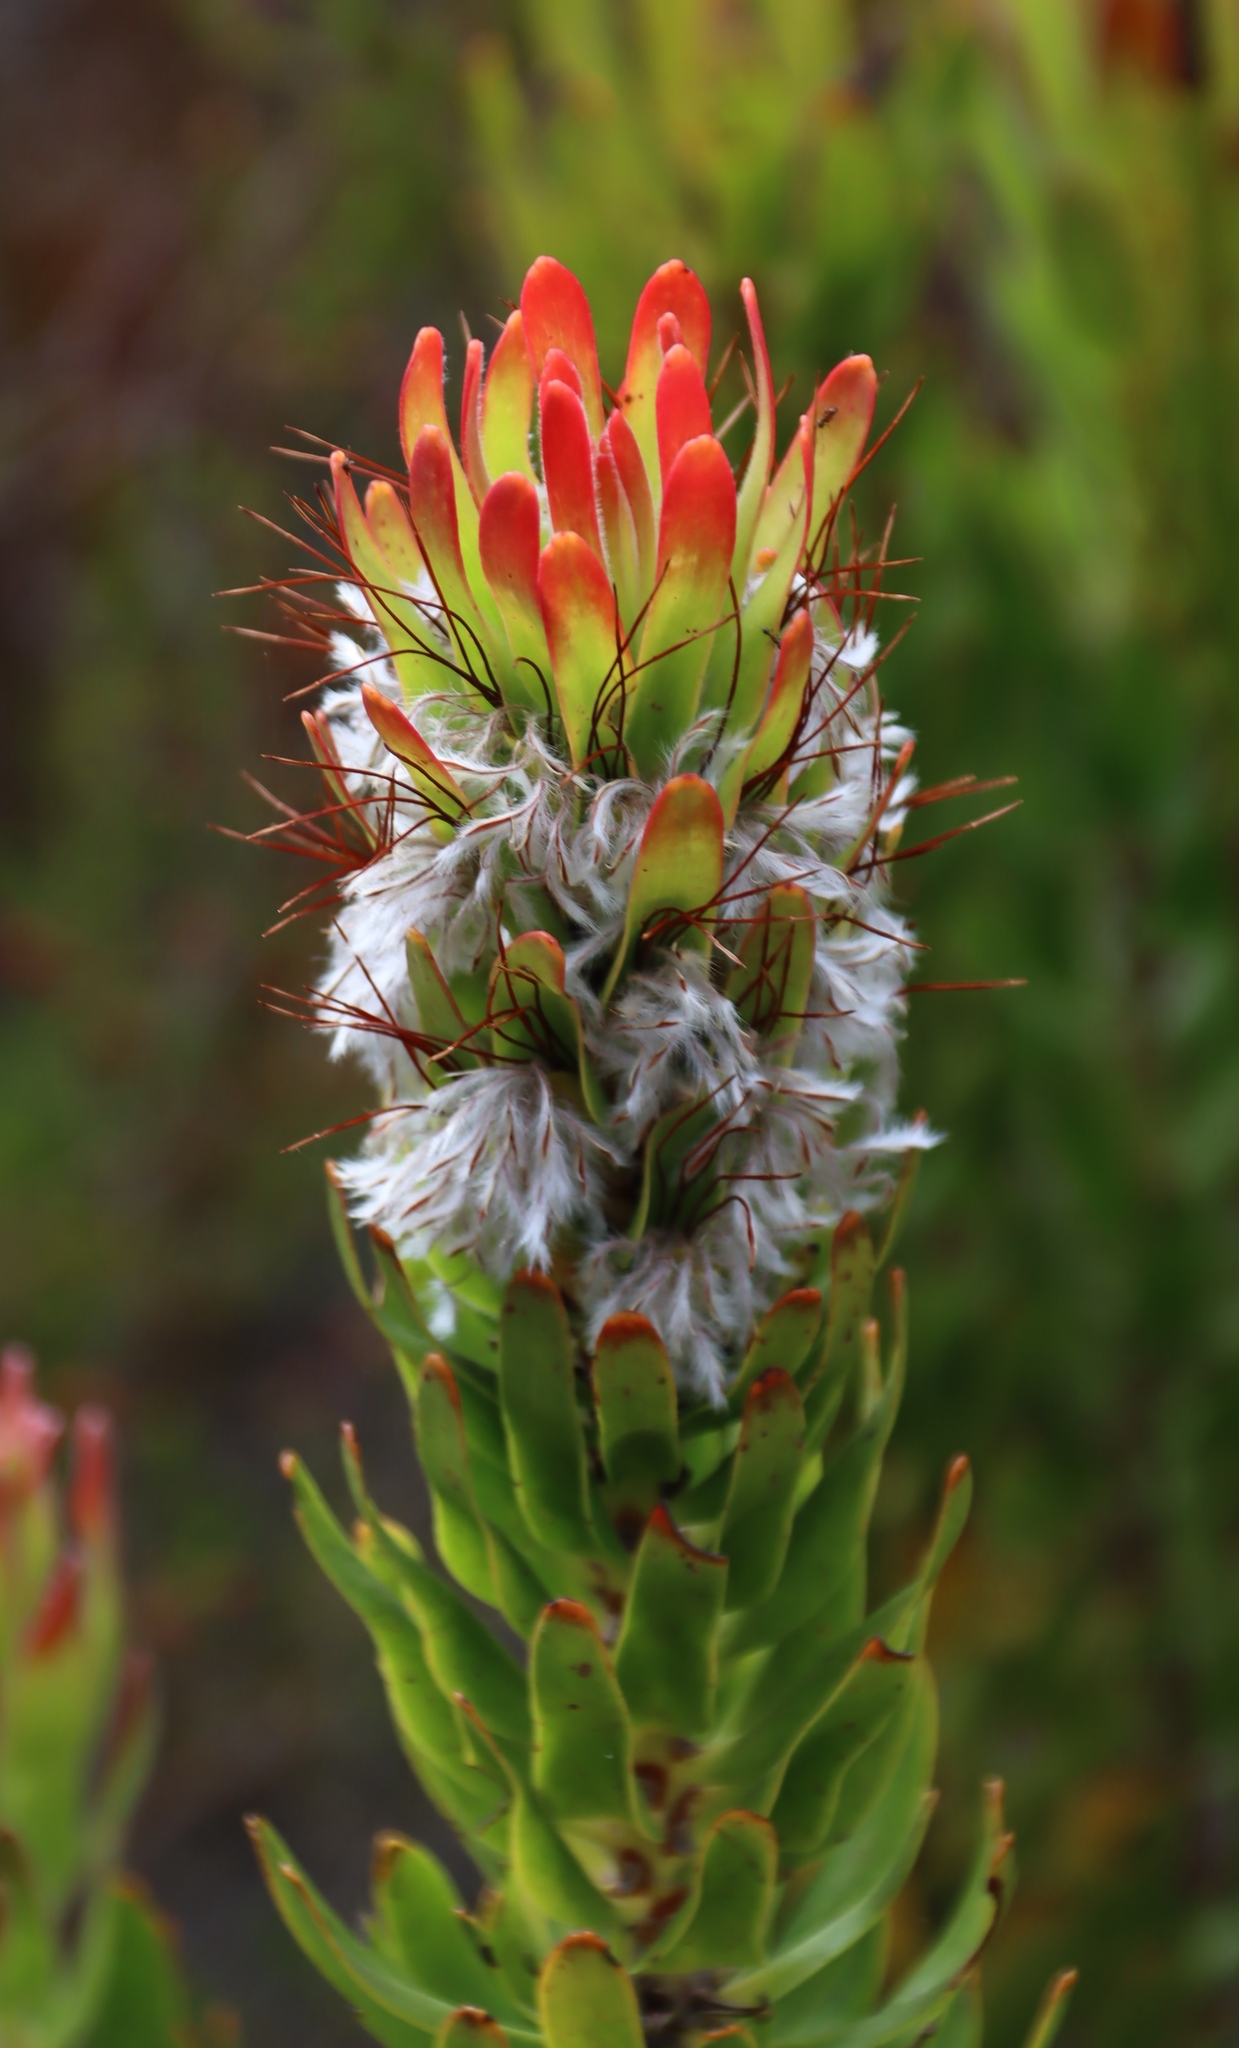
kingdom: Plantae
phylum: Tracheophyta
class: Magnoliopsida
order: Proteales
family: Proteaceae
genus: Mimetes
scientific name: Mimetes cucullatus
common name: Common pagoda
